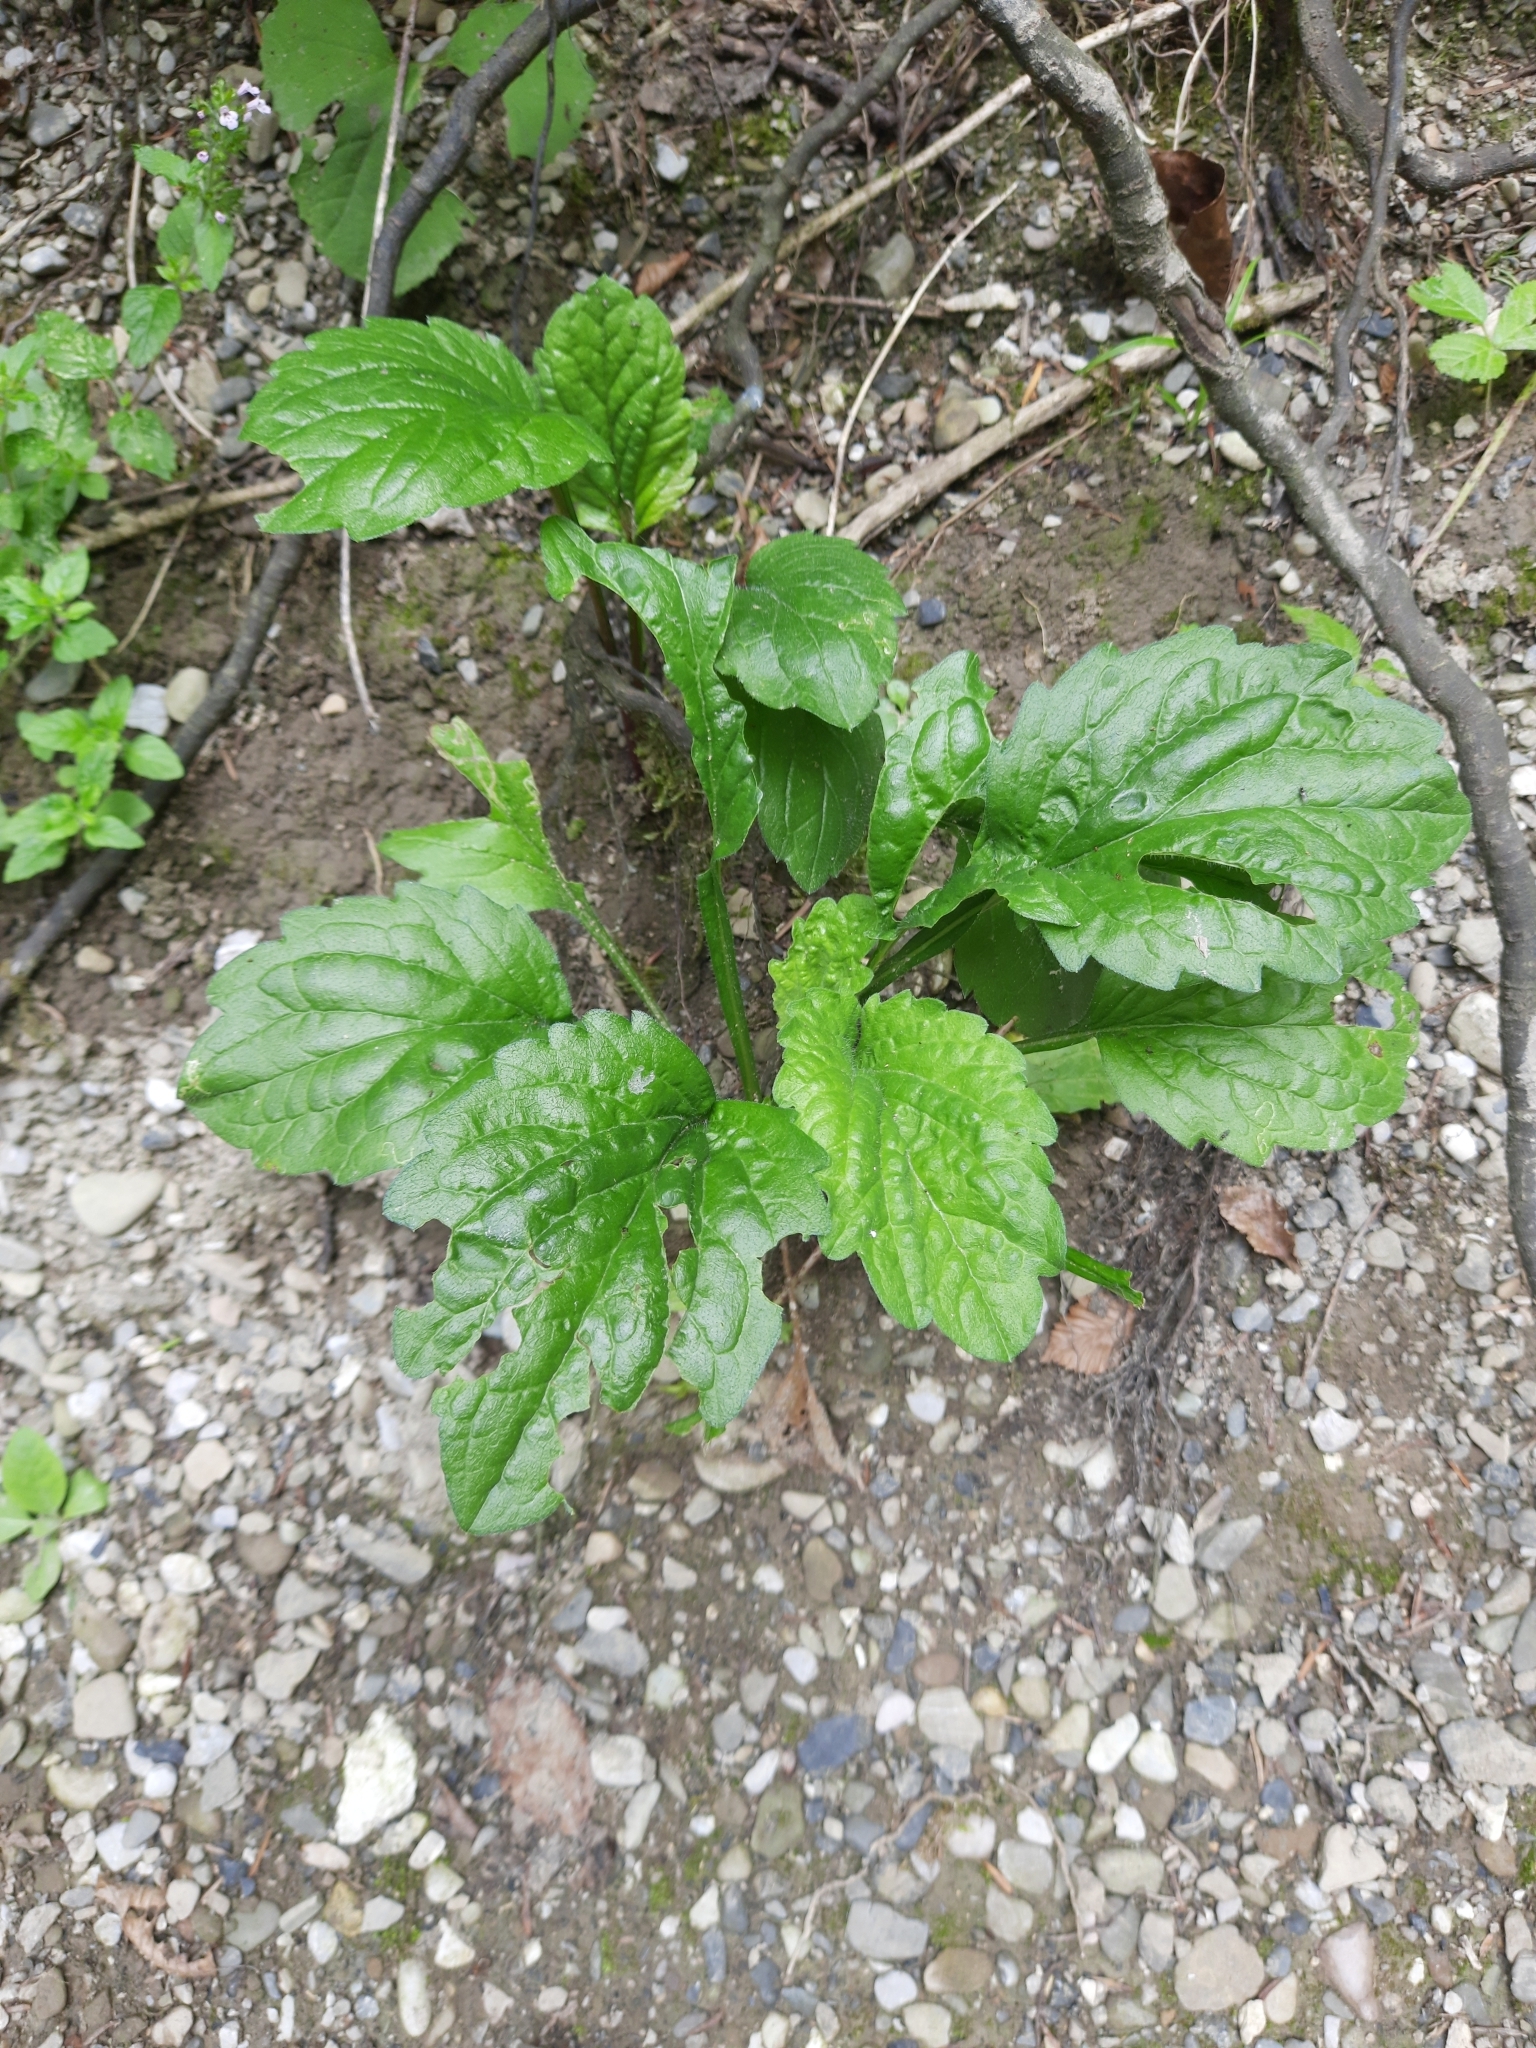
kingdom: Plantae
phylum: Tracheophyta
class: Magnoliopsida
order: Asterales
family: Asteraceae
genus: Erigeron
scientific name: Erigeron annuus
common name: Tall fleabane
